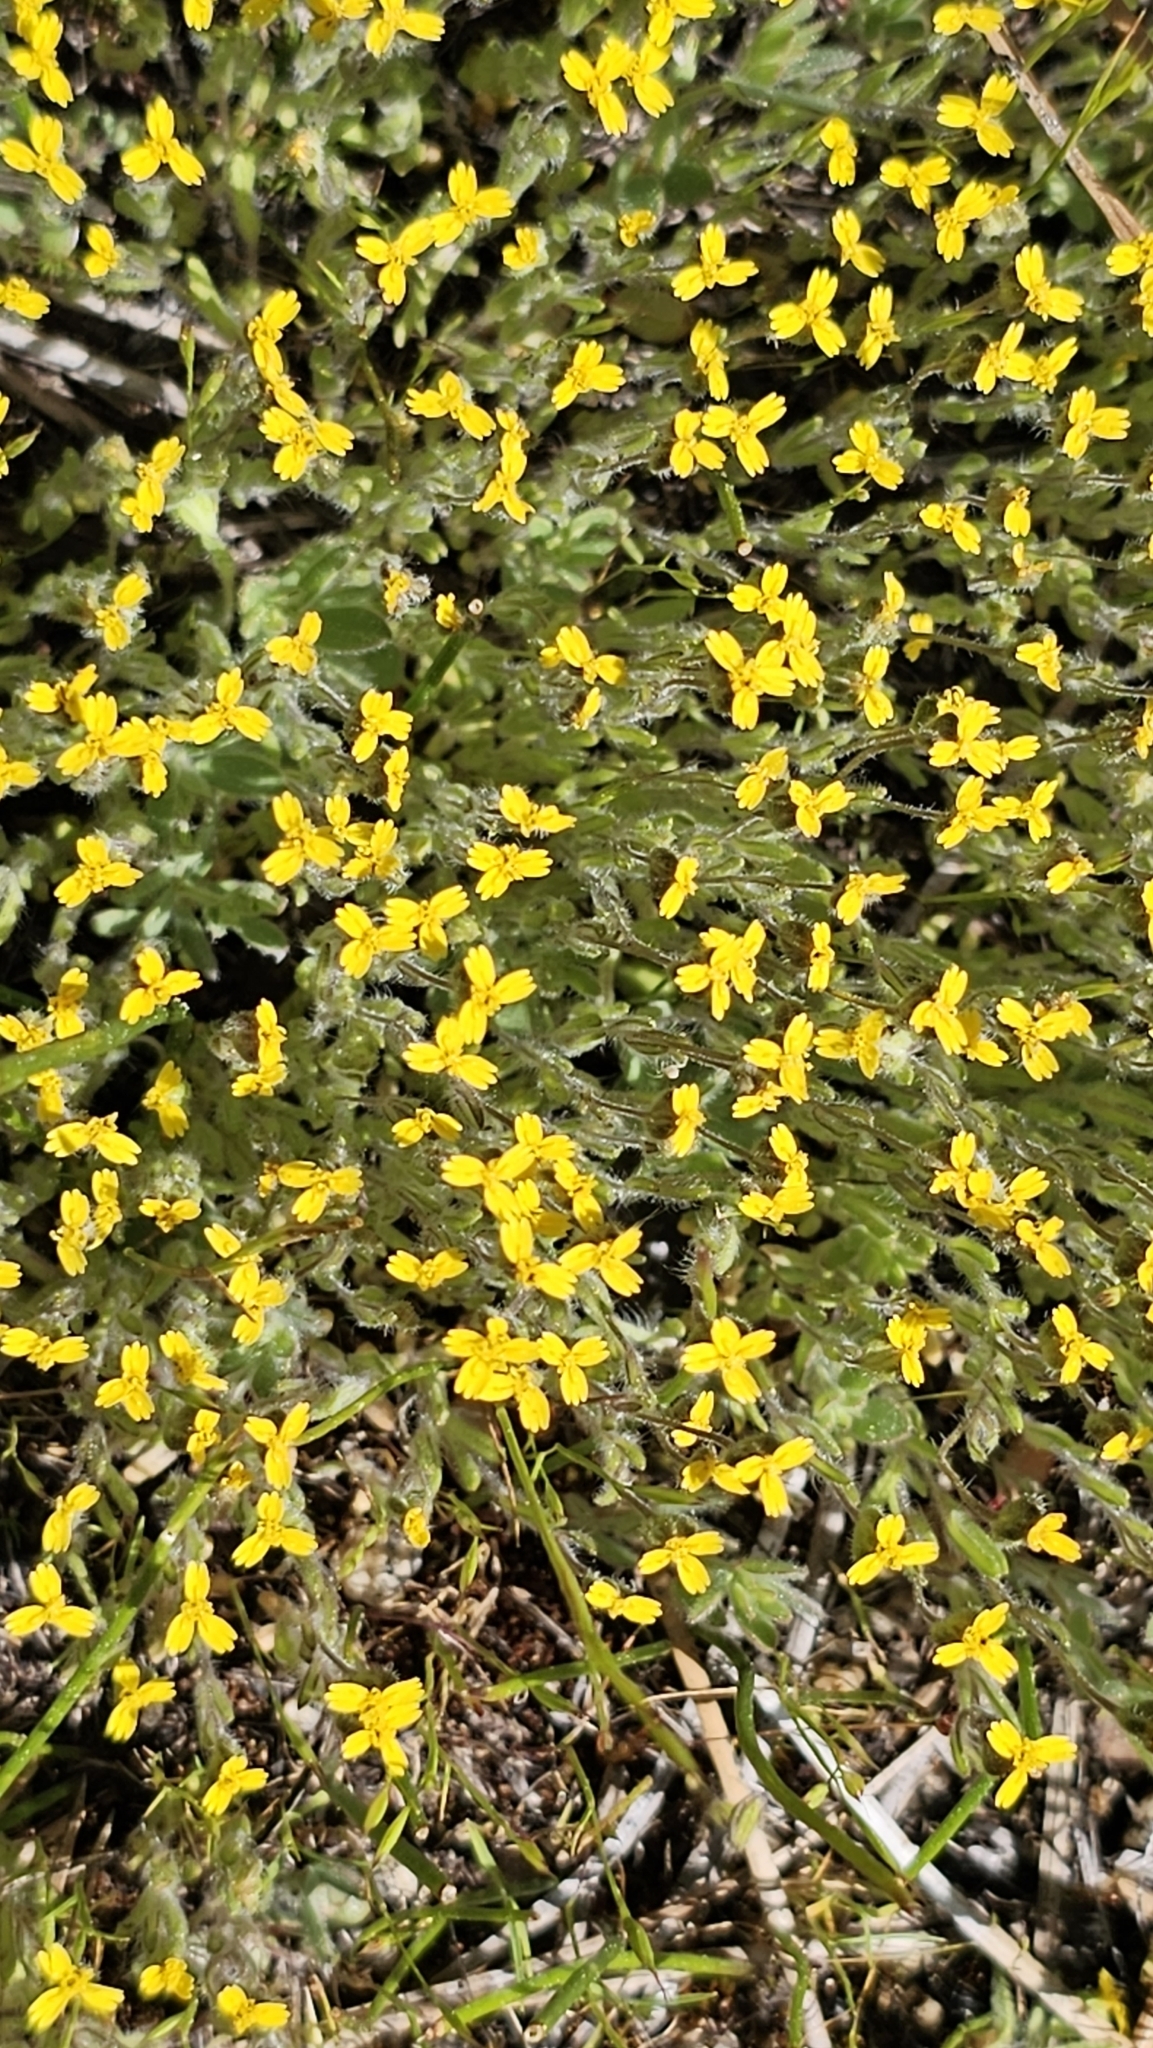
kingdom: Plantae
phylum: Tracheophyta
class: Magnoliopsida
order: Asterales
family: Asteraceae
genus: Jensia
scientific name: Jensia yosemitana
